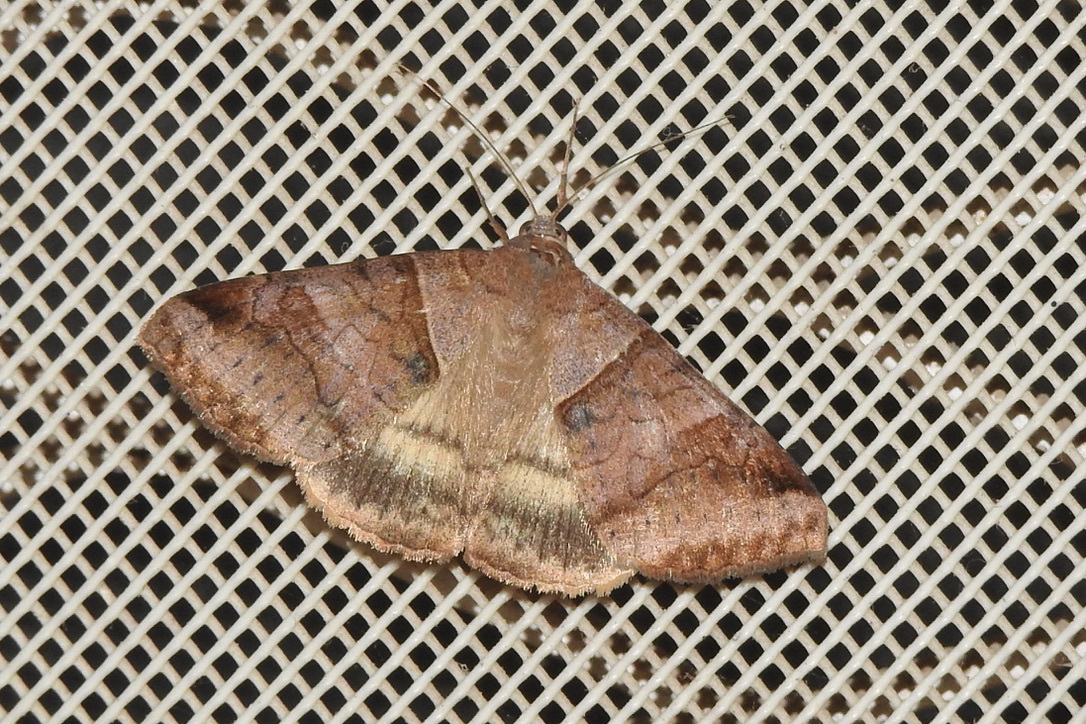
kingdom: Animalia
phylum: Arthropoda
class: Insecta
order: Lepidoptera
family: Erebidae
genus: Mocis
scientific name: Mocis undata
